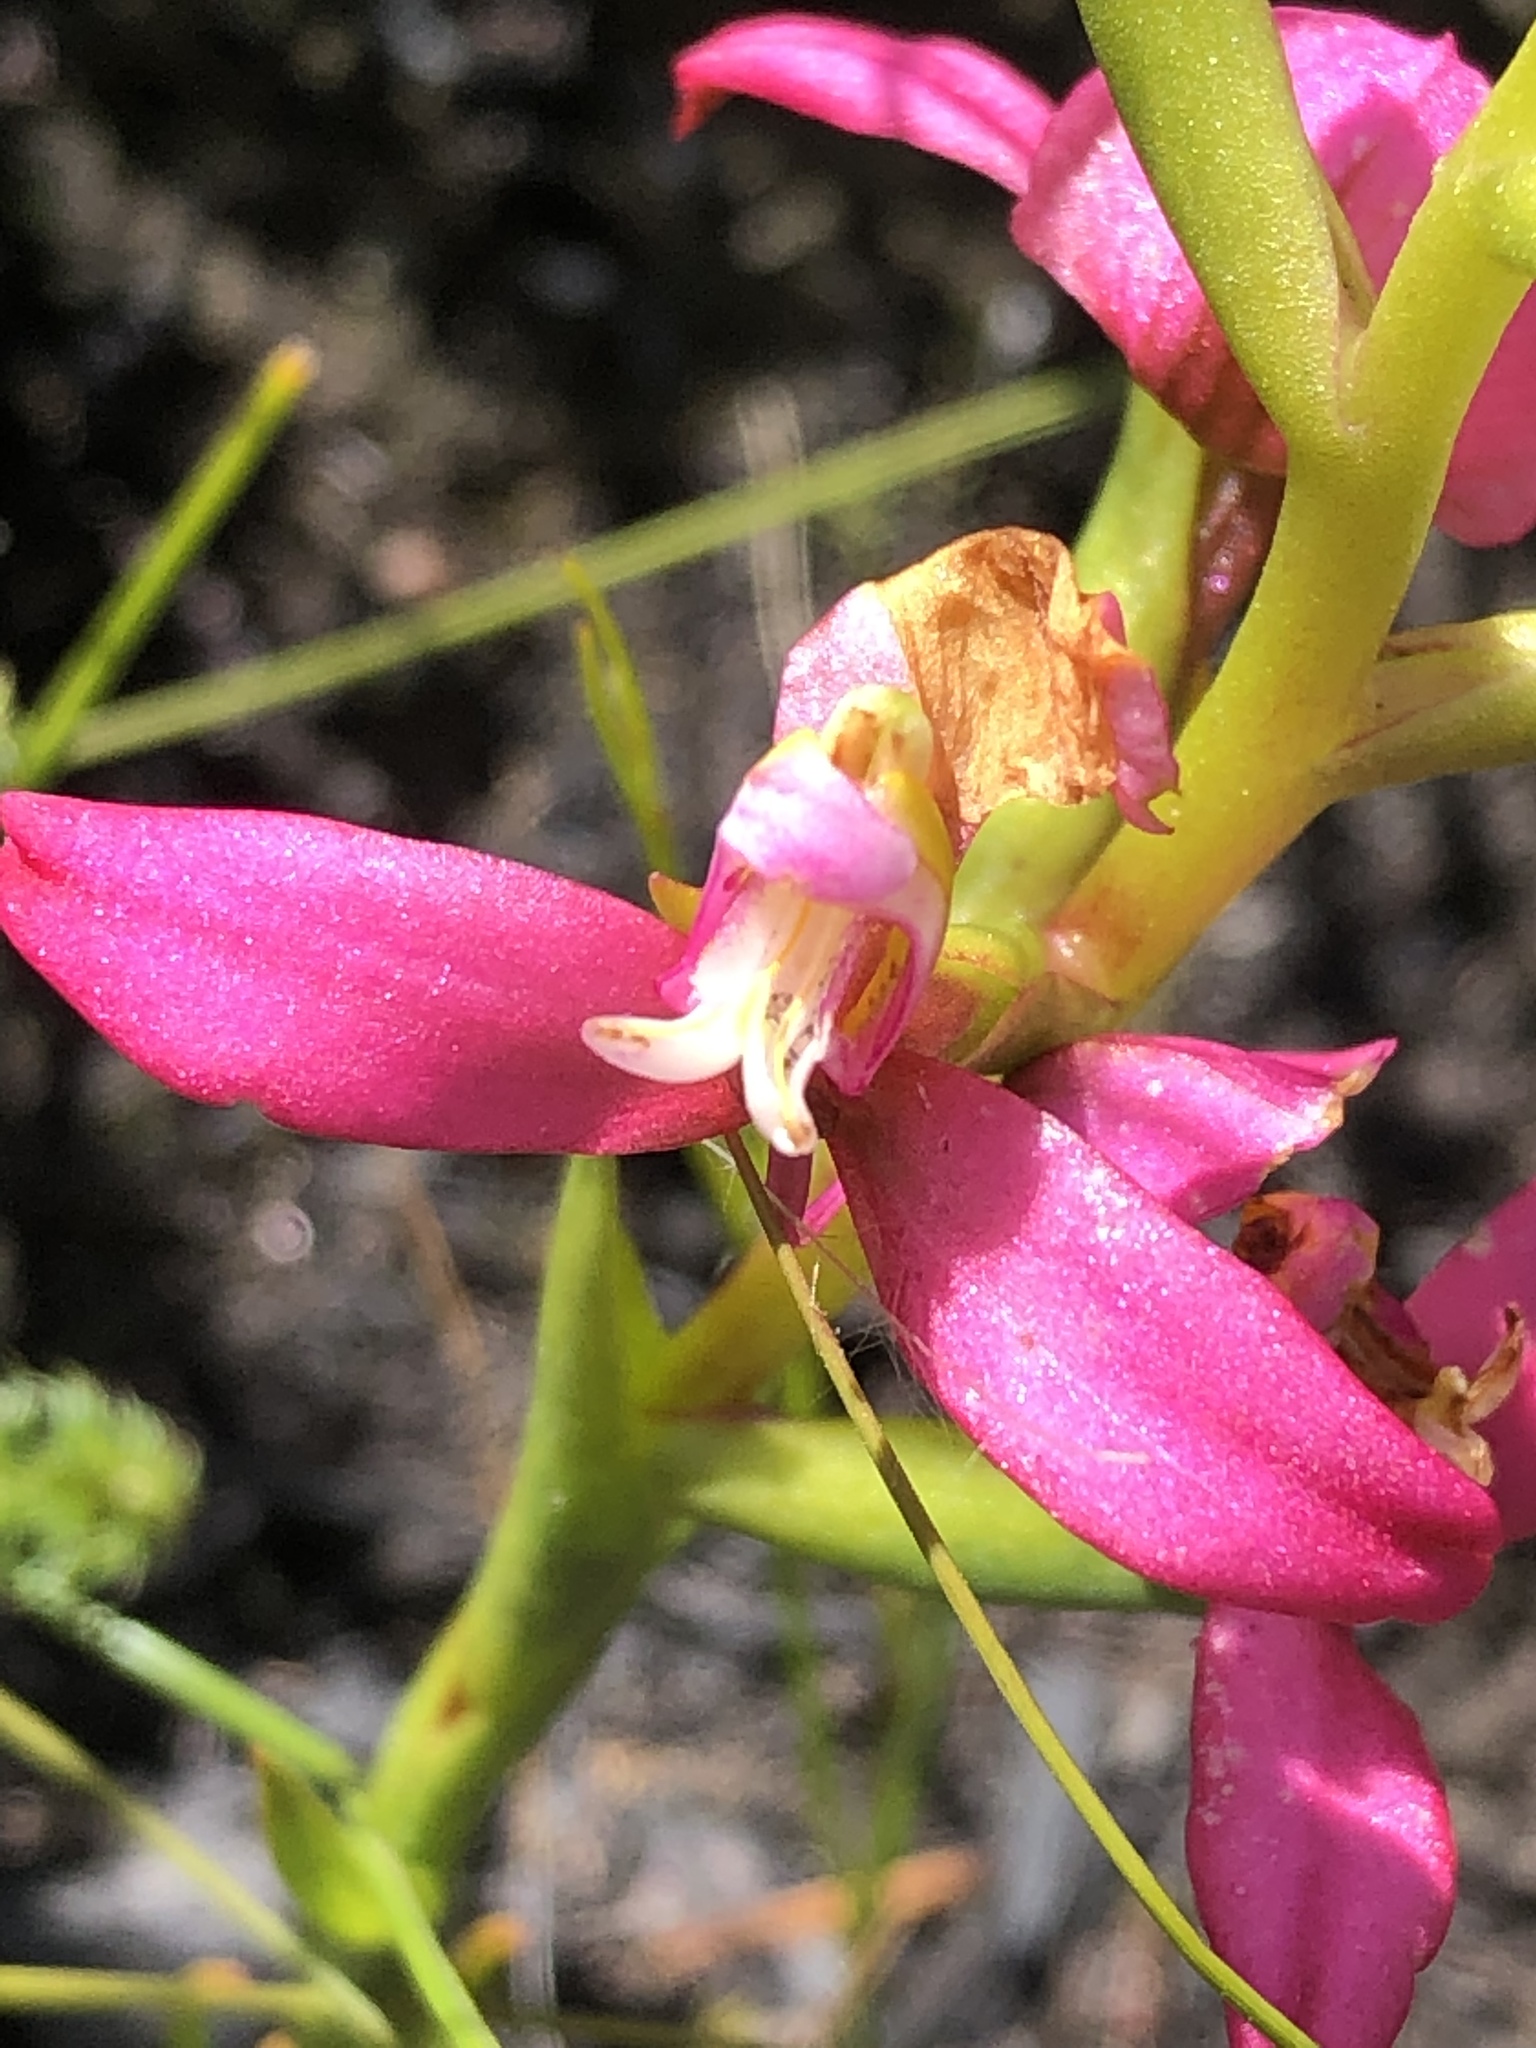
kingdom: Plantae
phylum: Tracheophyta
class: Liliopsida
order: Asparagales
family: Orchidaceae
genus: Disa
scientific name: Disa filicornis
